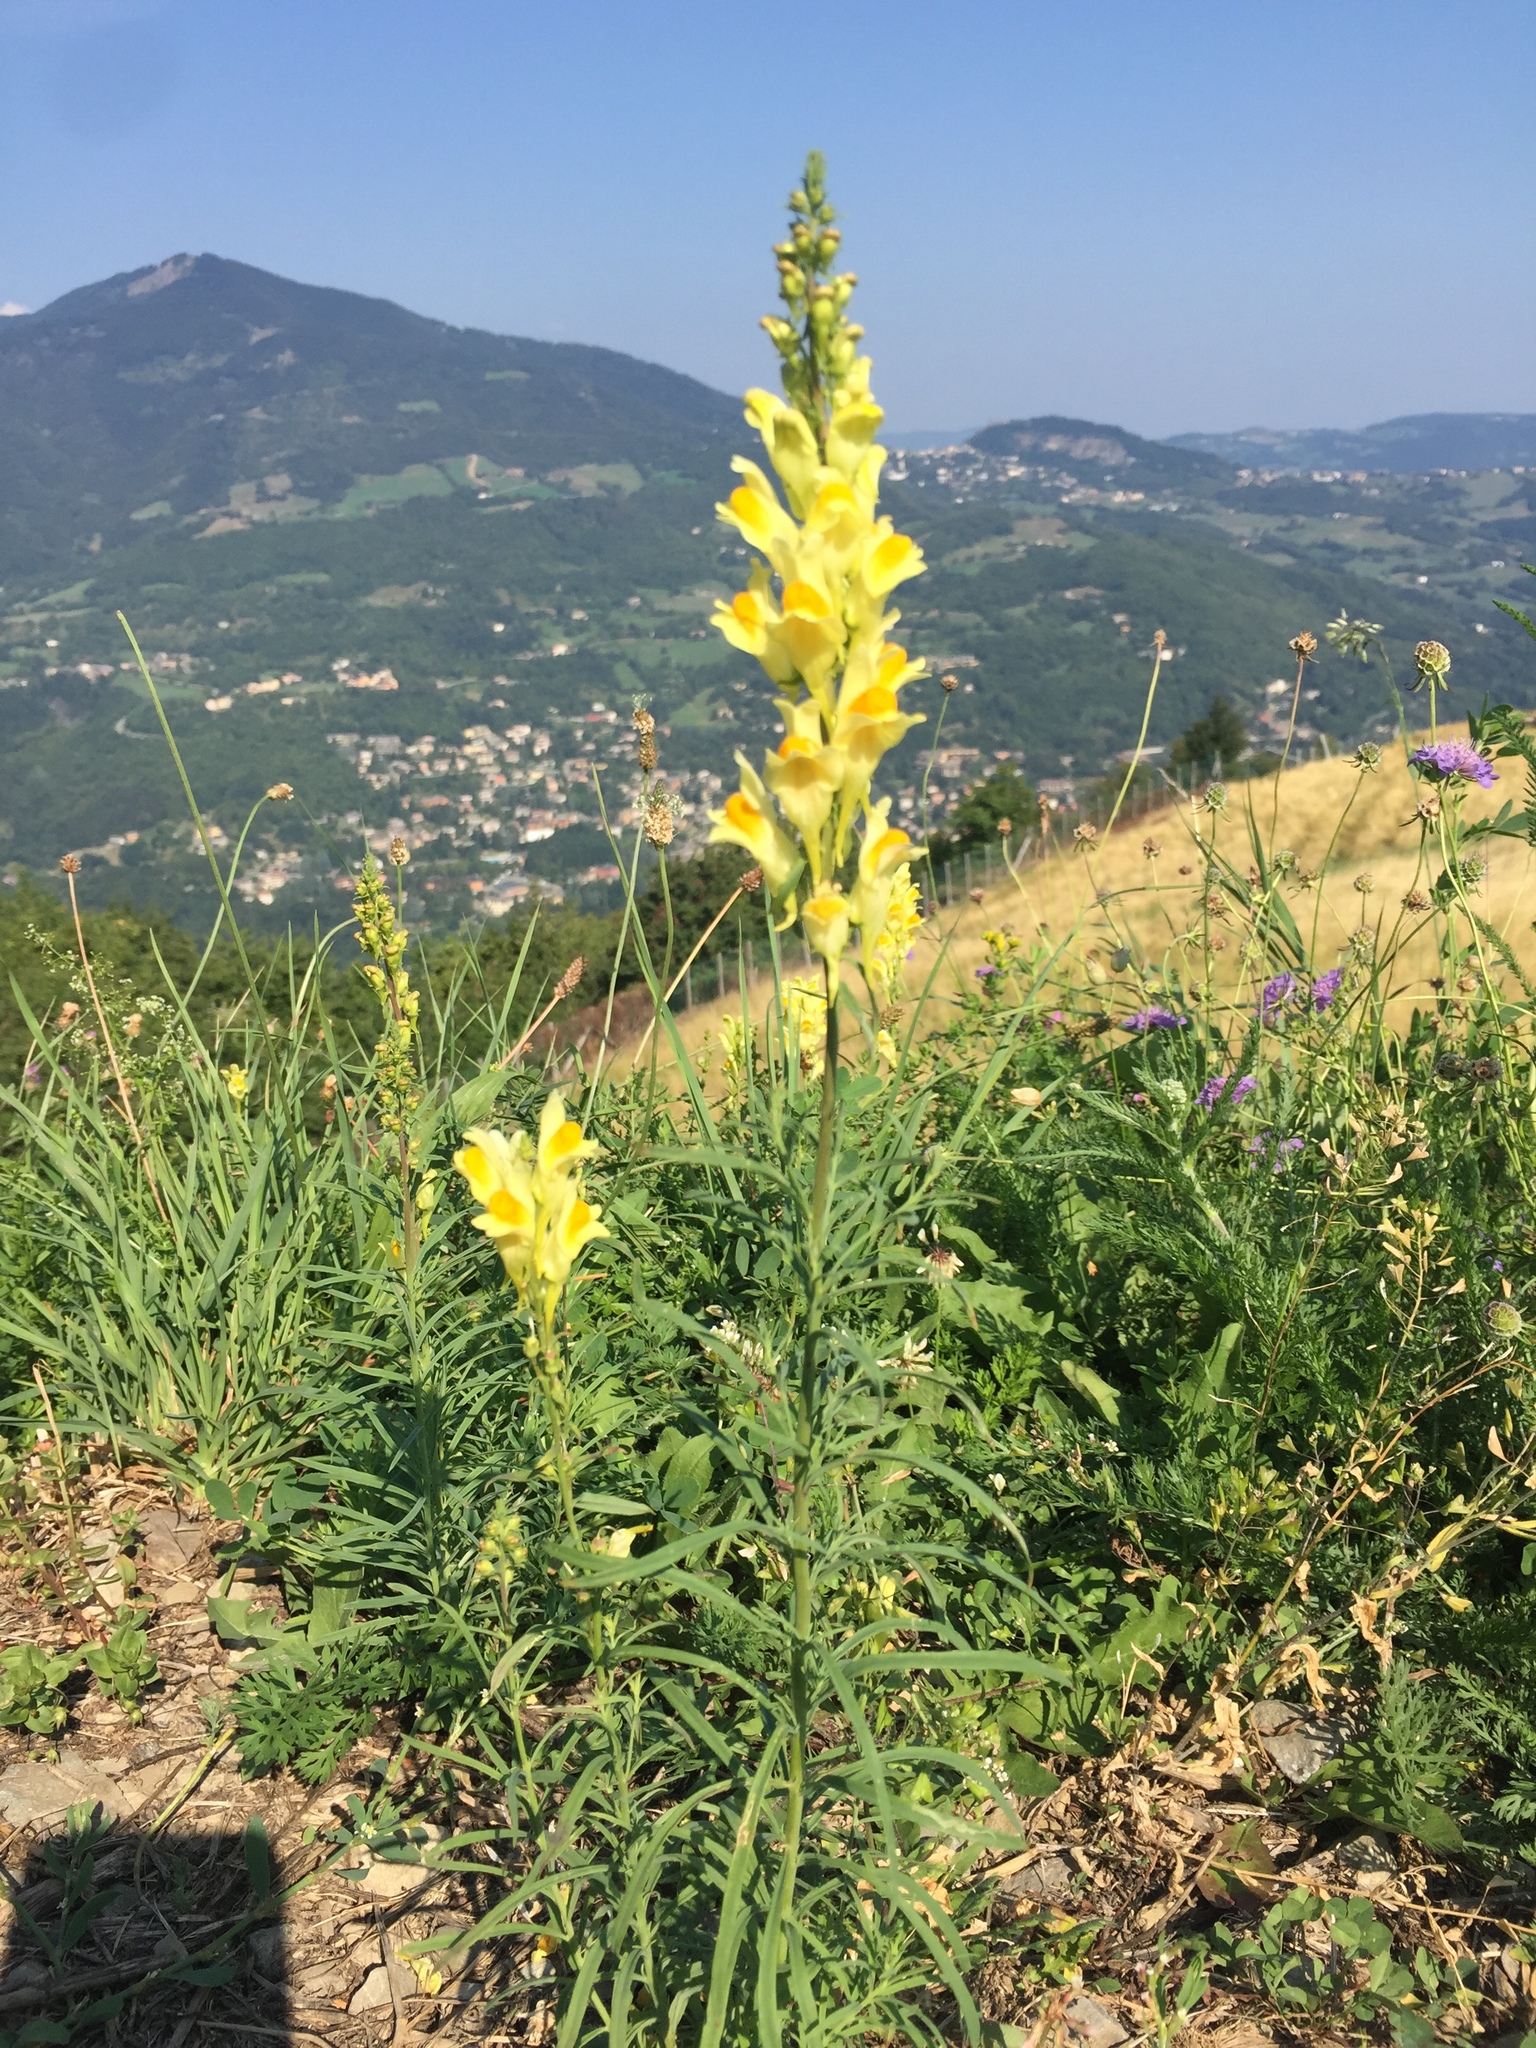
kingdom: Plantae
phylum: Tracheophyta
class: Magnoliopsida
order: Lamiales
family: Plantaginaceae
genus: Linaria
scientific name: Linaria vulgaris
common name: Butter and eggs
